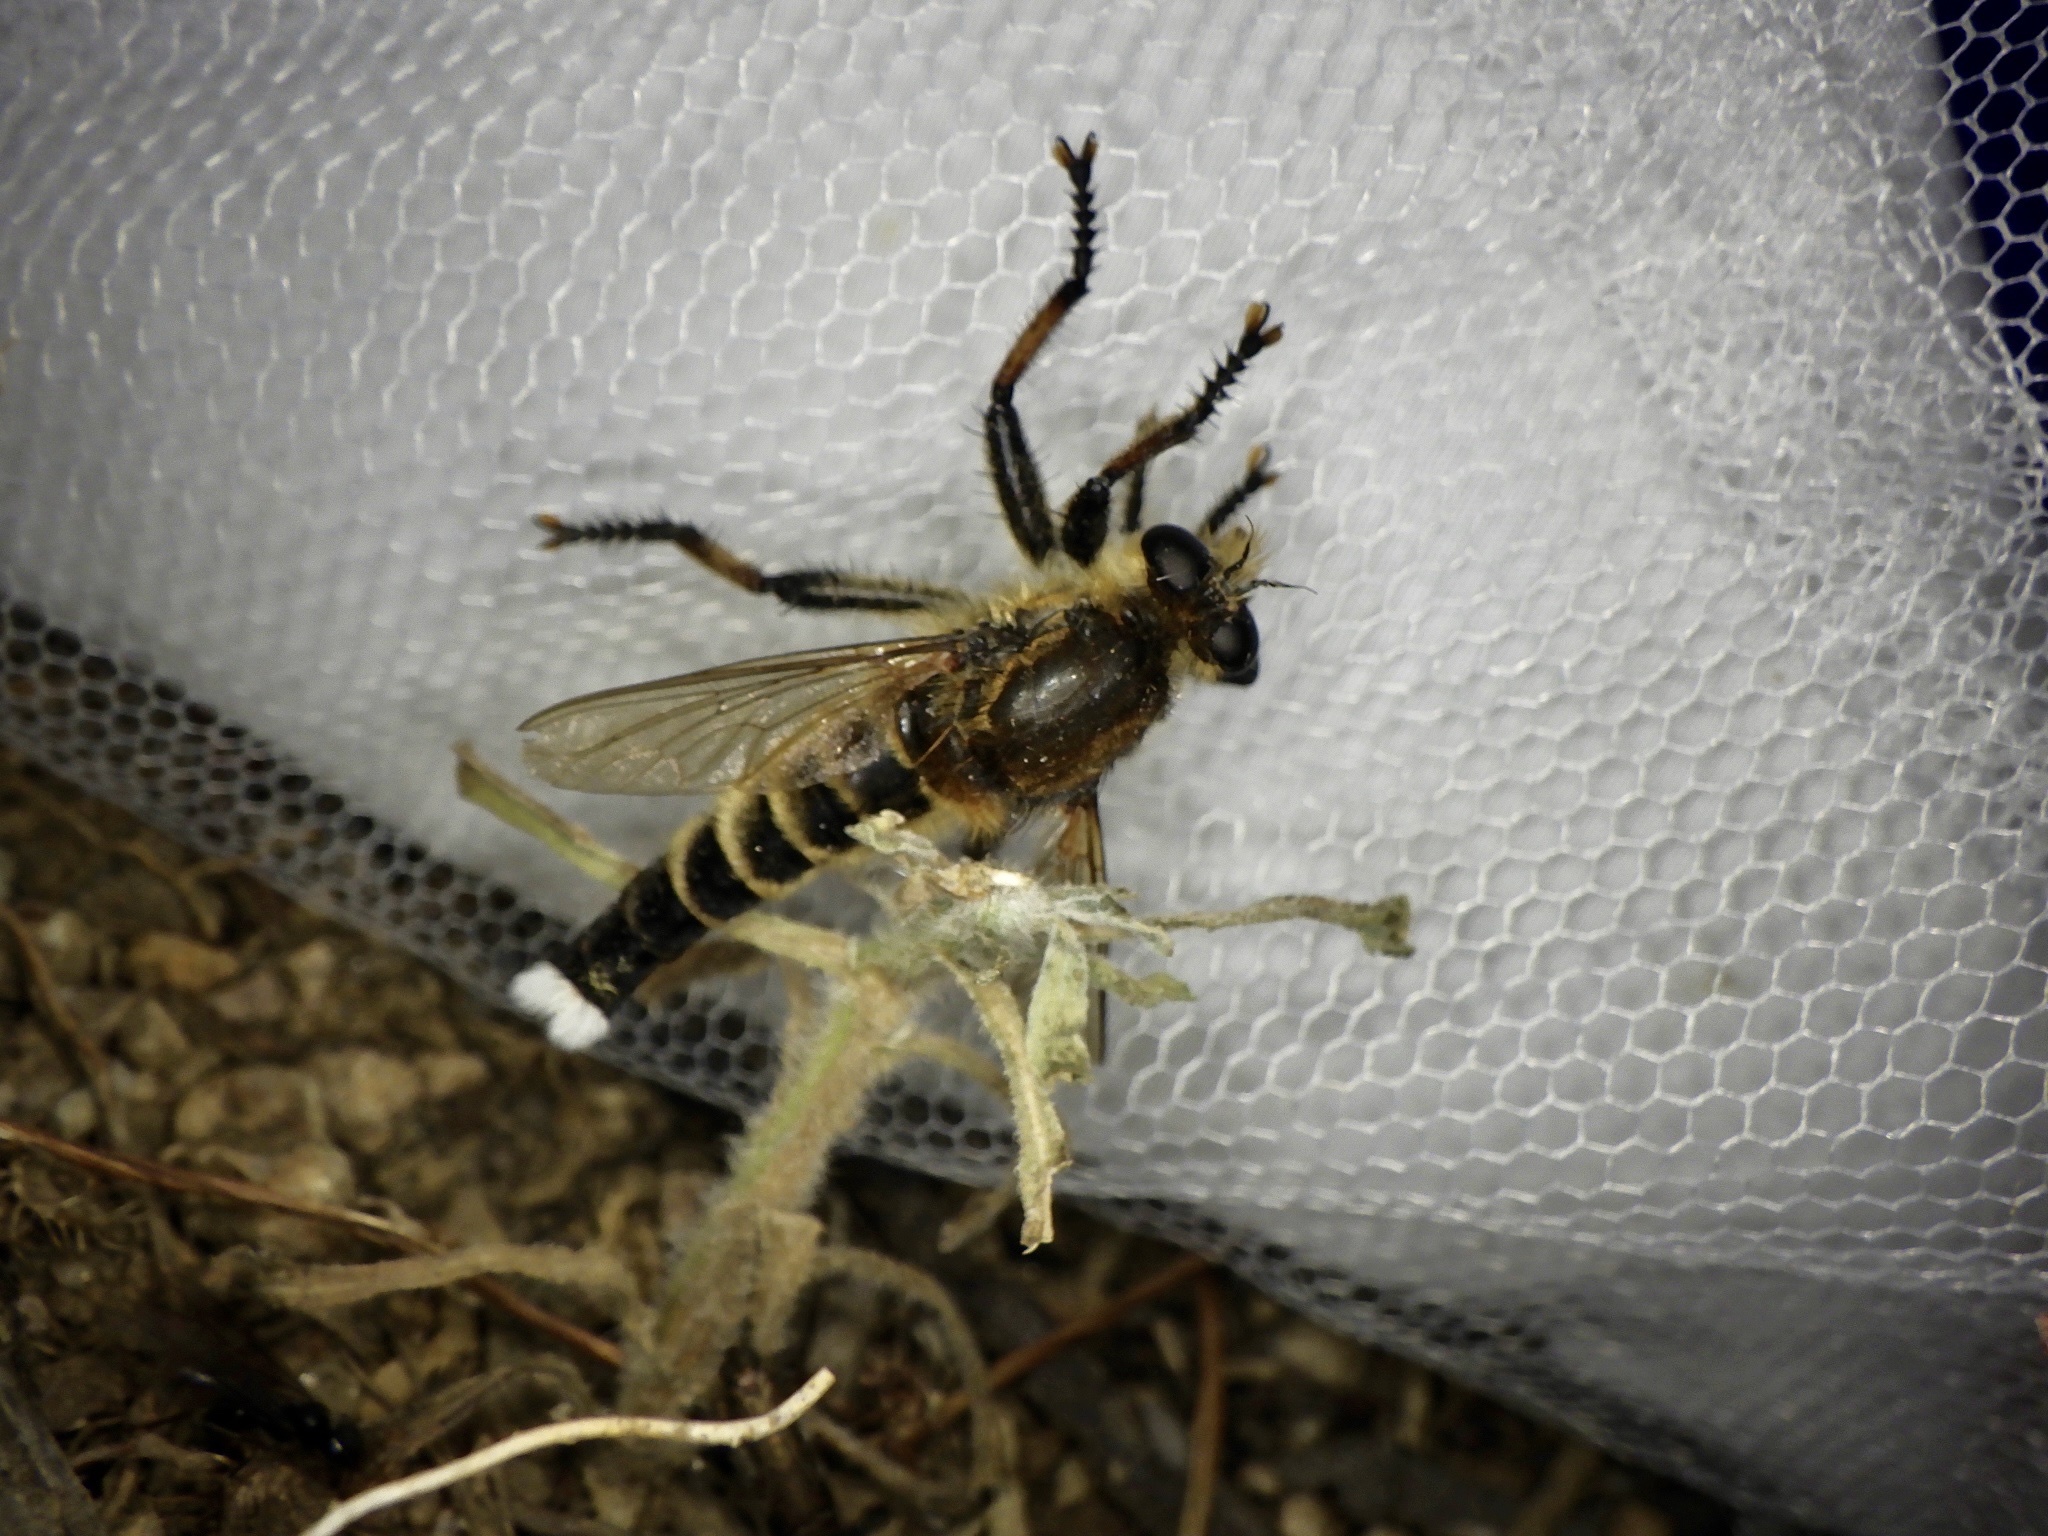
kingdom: Animalia
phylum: Arthropoda
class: Insecta
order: Diptera
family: Asilidae
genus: Promachus
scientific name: Promachus yesonicus
